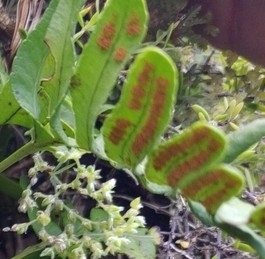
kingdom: Plantae
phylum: Tracheophyta
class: Polypodiopsida
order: Polypodiales
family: Polypodiaceae
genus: Polypodium
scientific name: Polypodium macaronesicum
